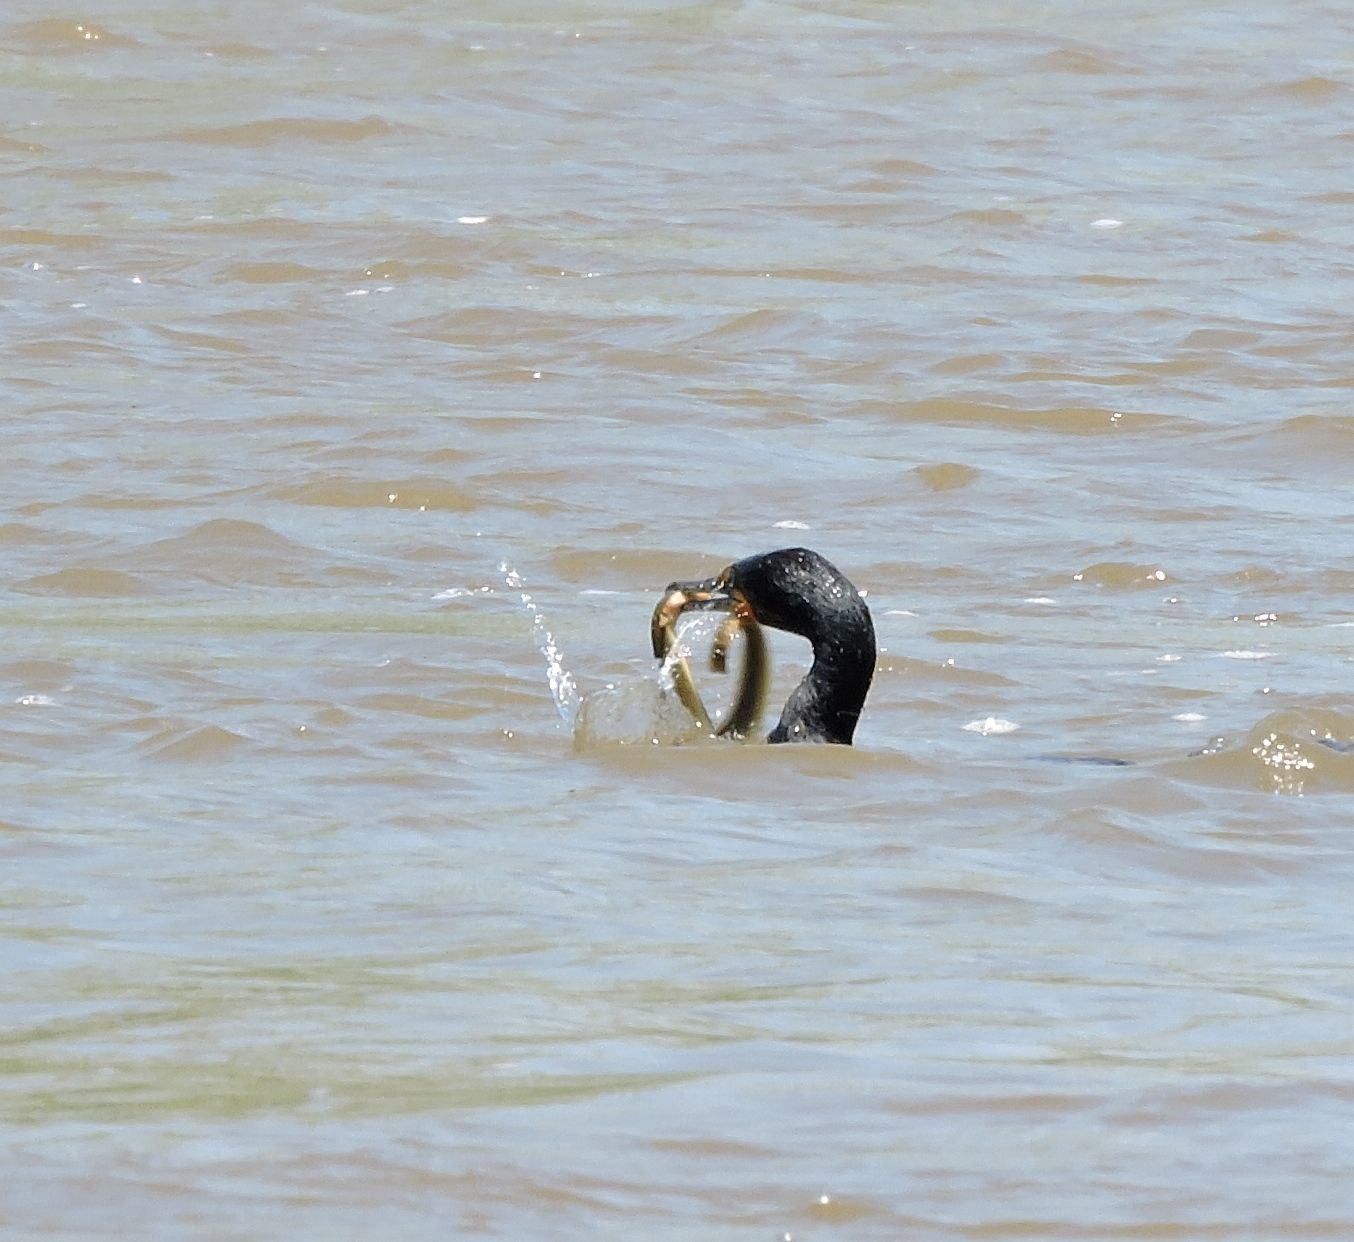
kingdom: Animalia
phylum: Chordata
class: Aves
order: Suliformes
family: Phalacrocoracidae
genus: Phalacrocorax
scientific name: Phalacrocorax auritus
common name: Double-crested cormorant
